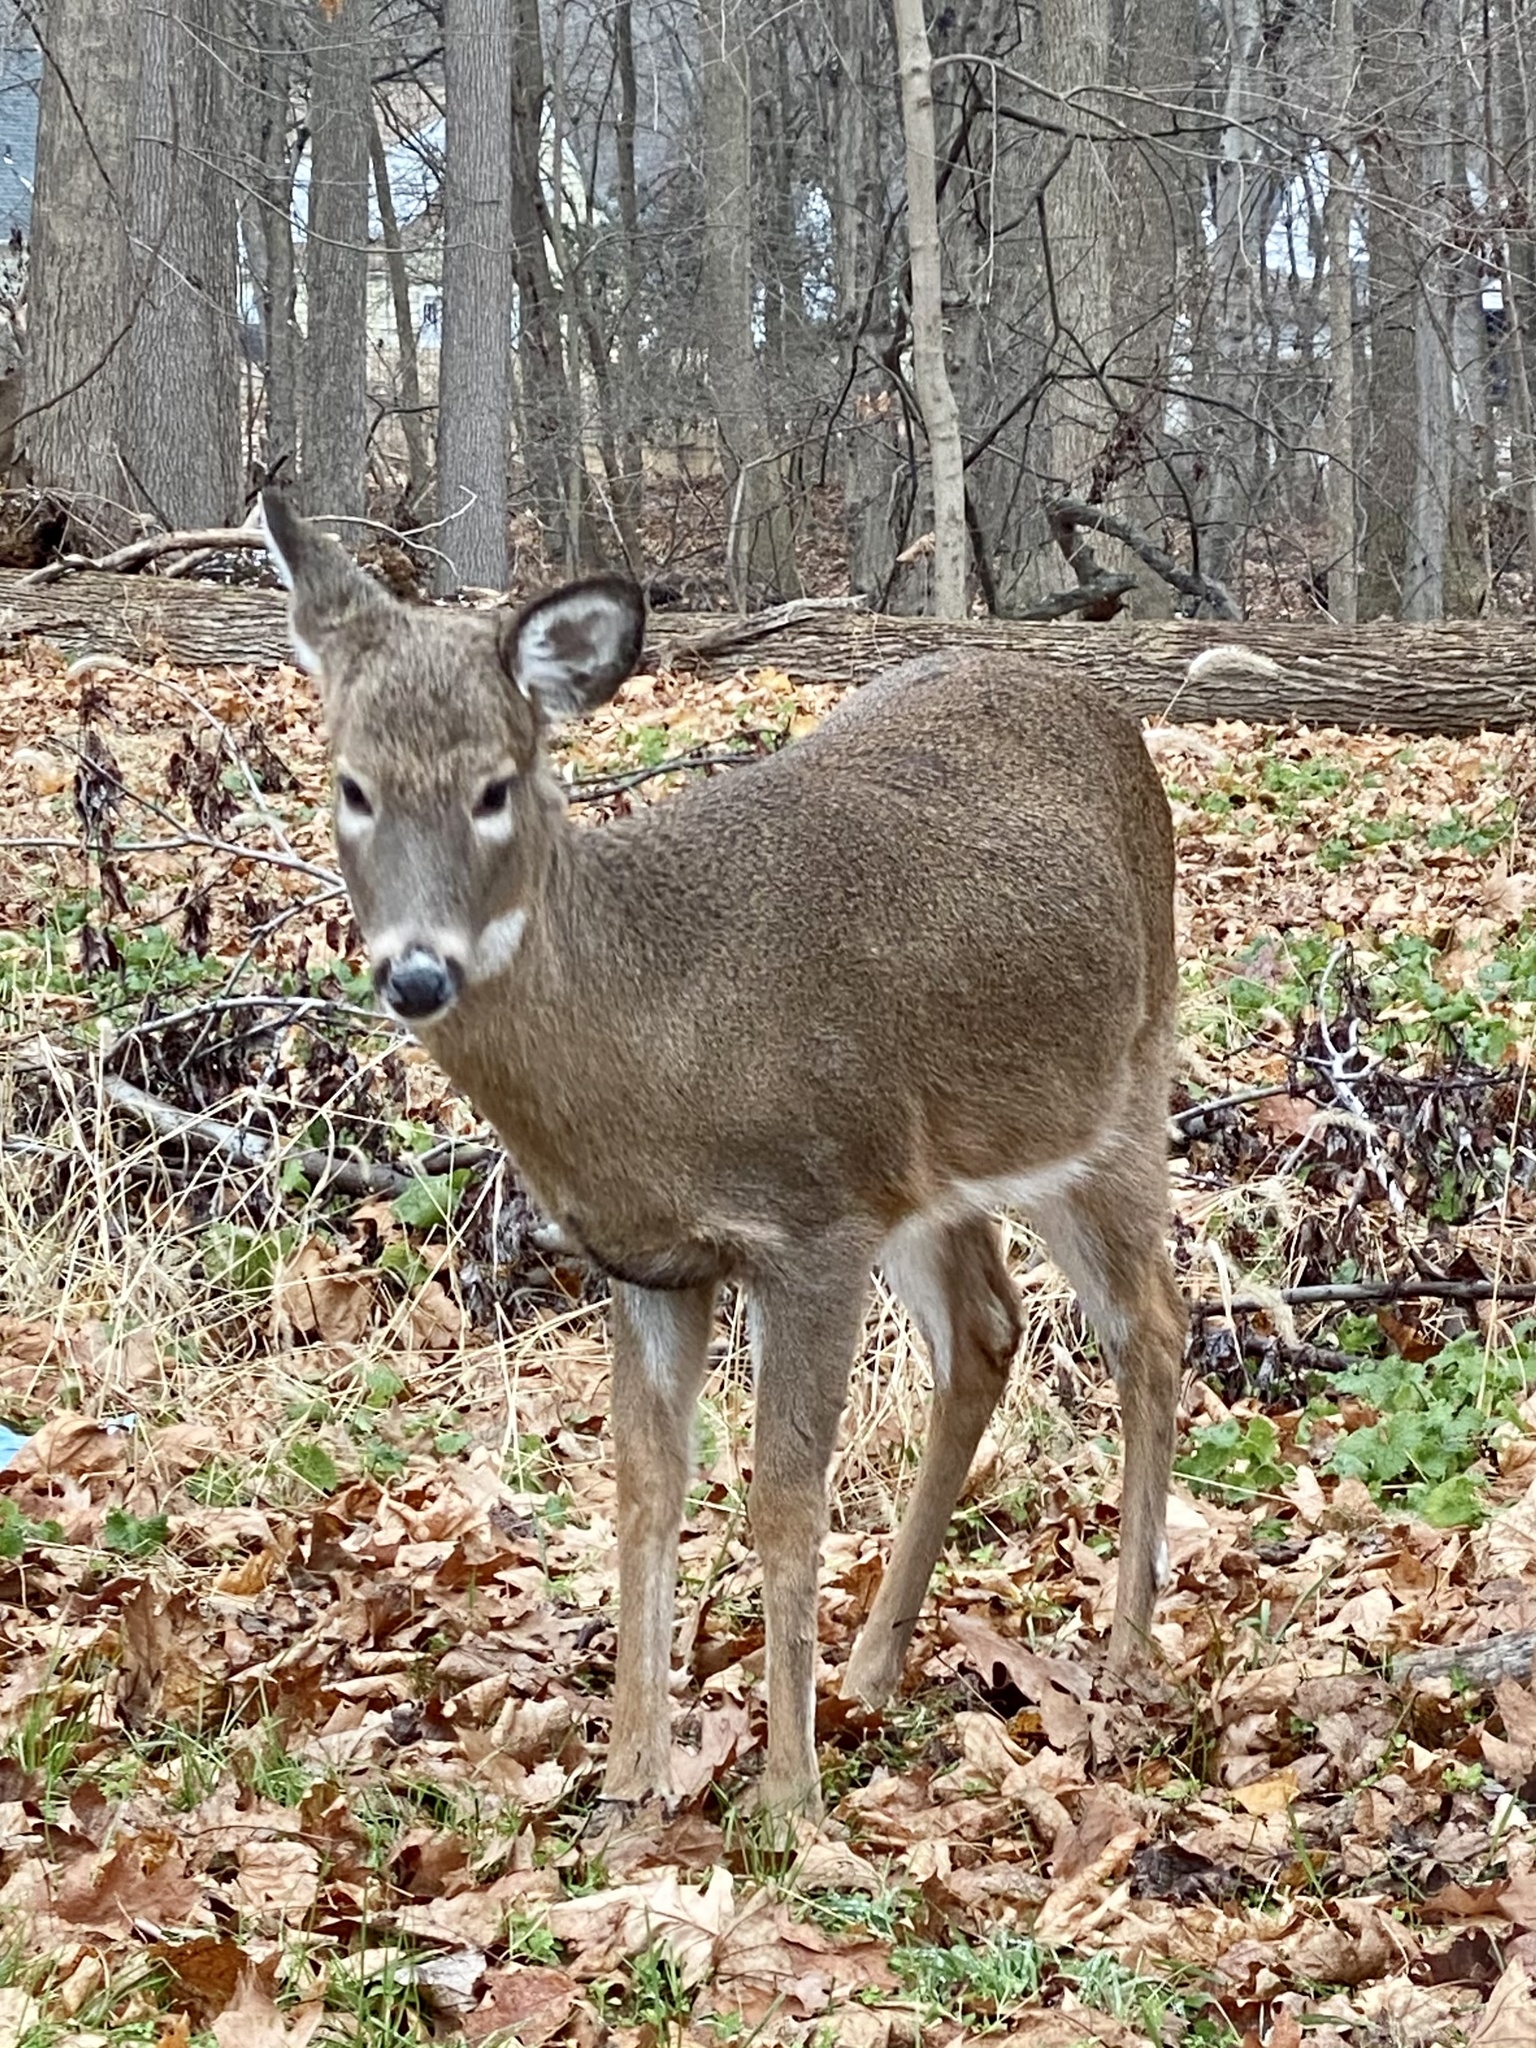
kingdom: Animalia
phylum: Chordata
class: Mammalia
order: Artiodactyla
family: Cervidae
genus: Odocoileus
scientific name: Odocoileus virginianus
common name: White-tailed deer
